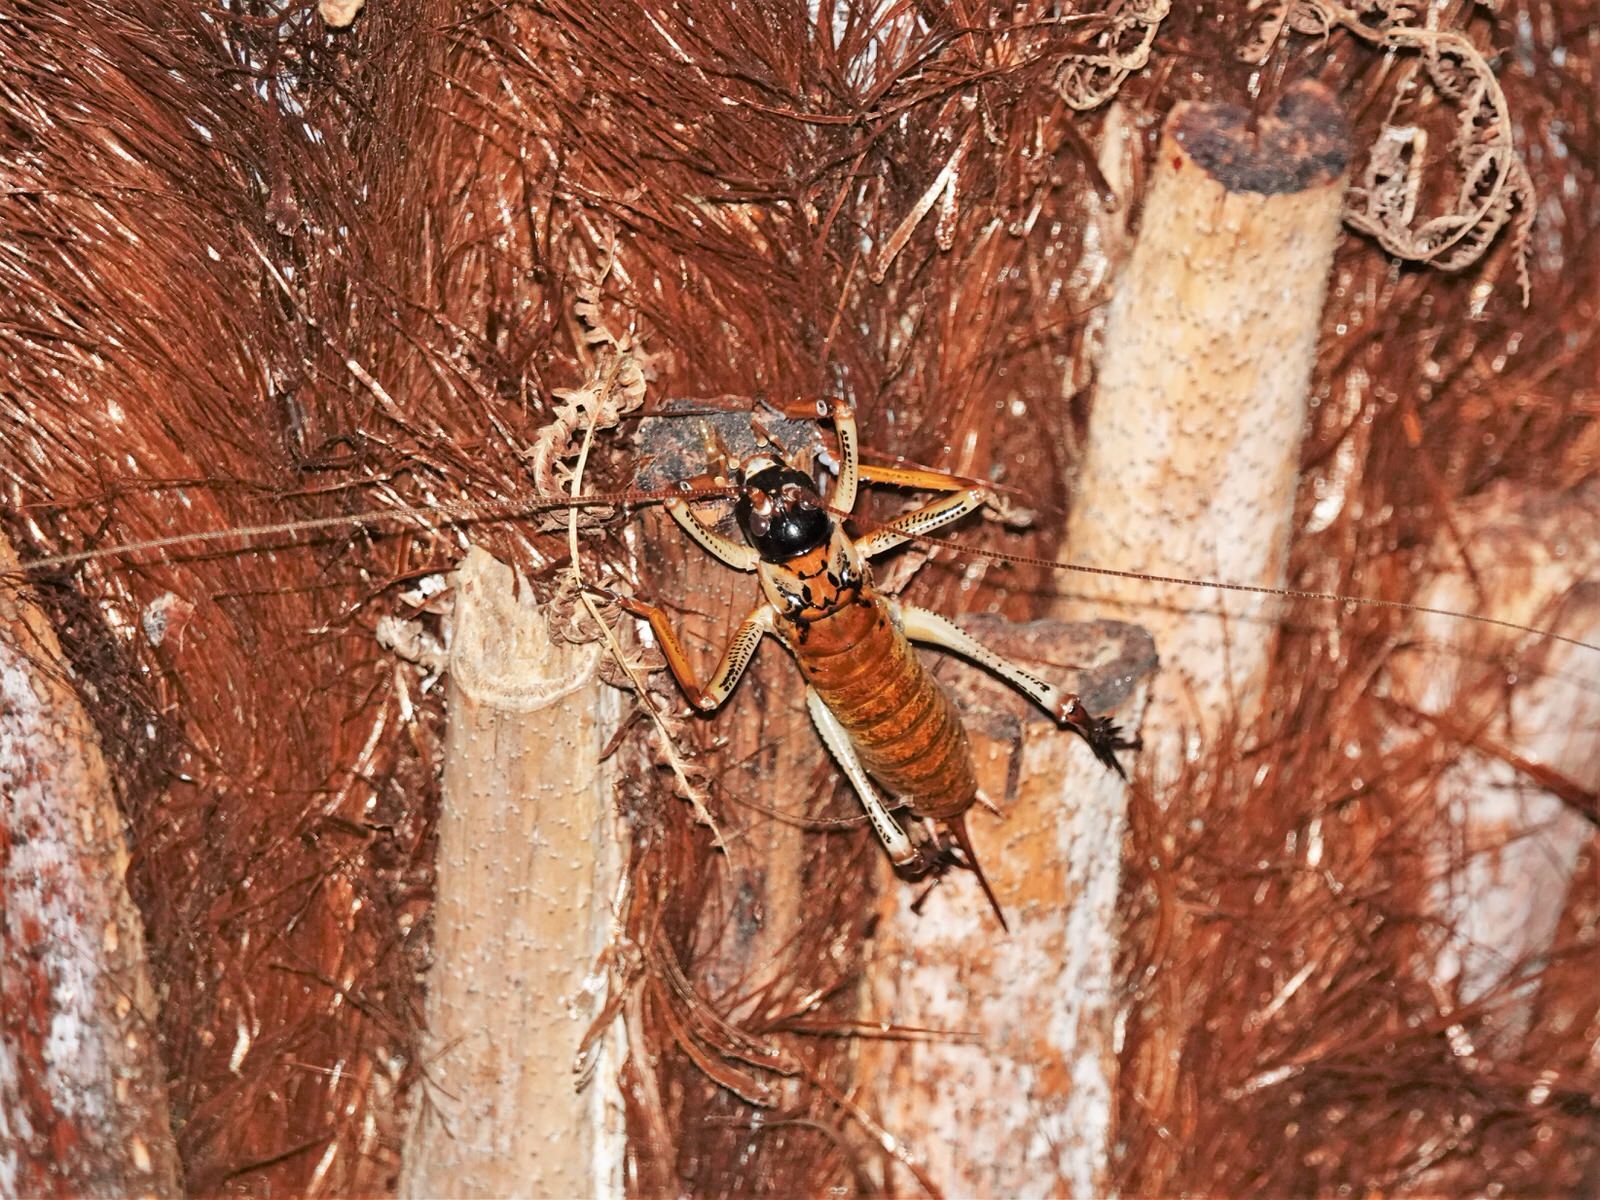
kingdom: Animalia
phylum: Arthropoda
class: Insecta
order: Orthoptera
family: Anostostomatidae
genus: Hemideina
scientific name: Hemideina thoracica
